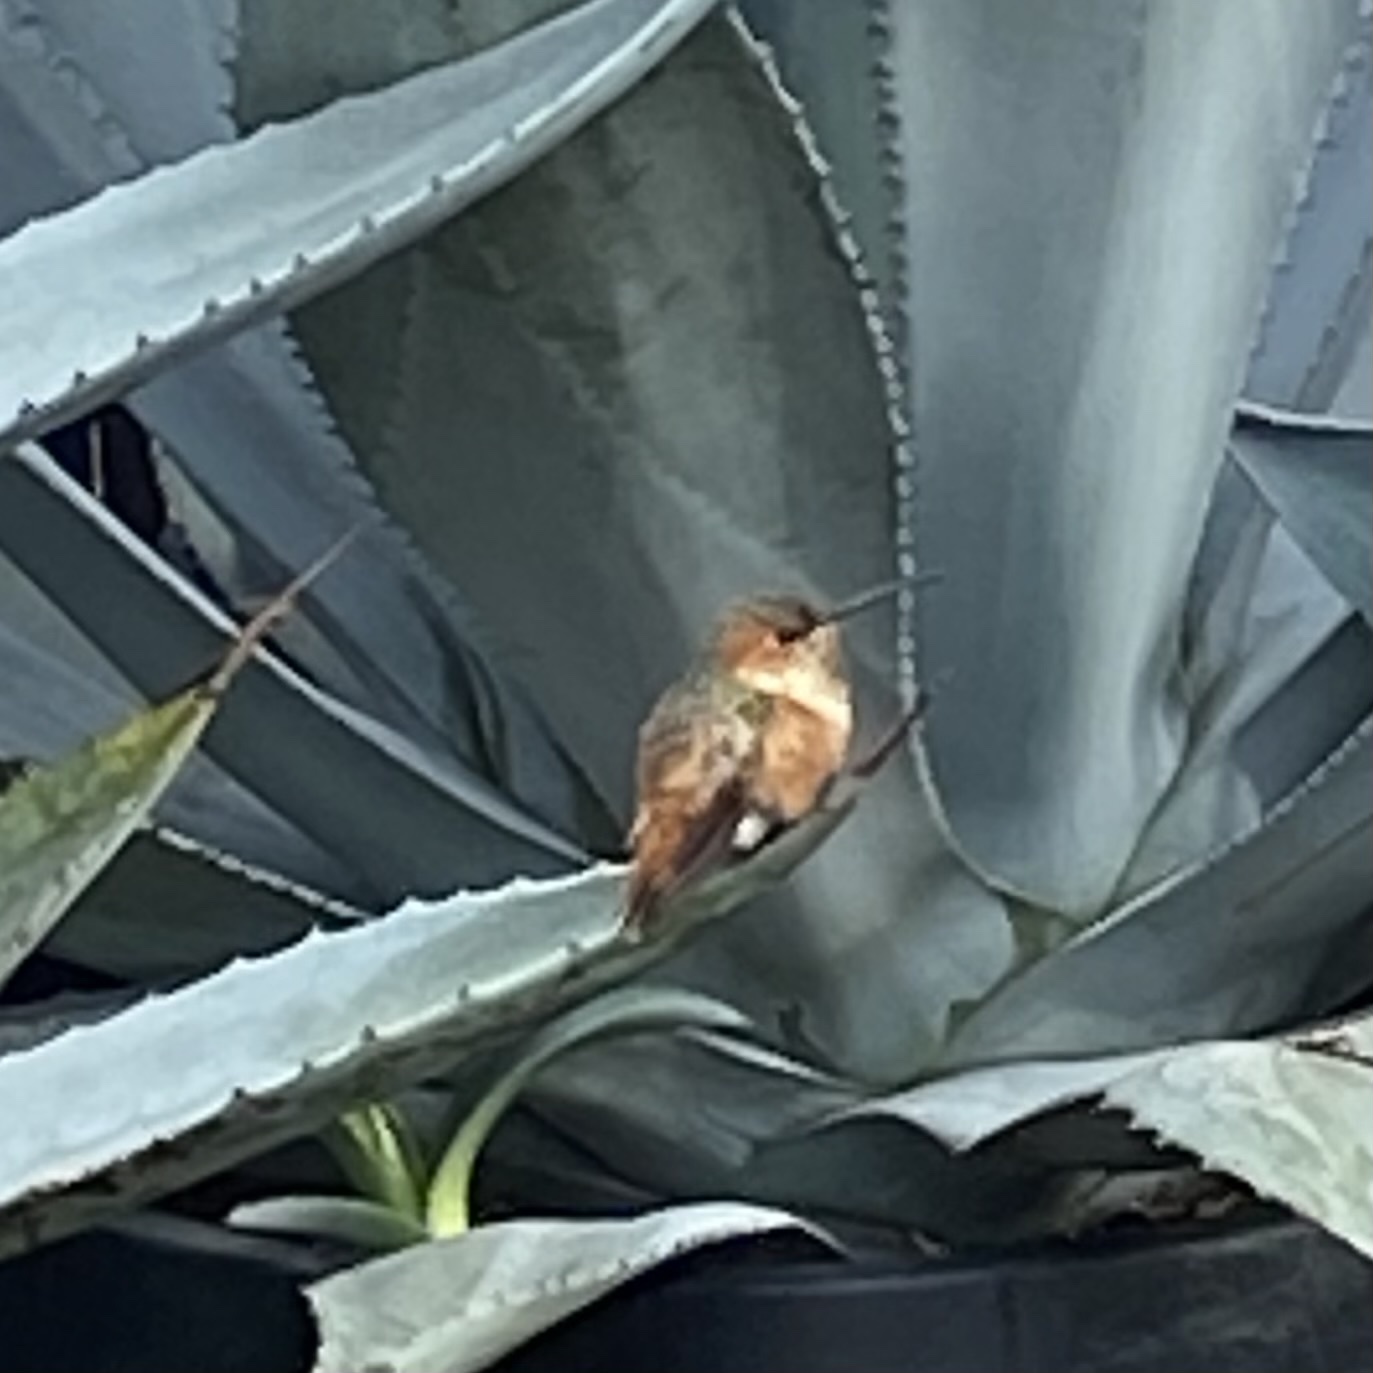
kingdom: Animalia
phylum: Chordata
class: Aves
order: Apodiformes
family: Trochilidae
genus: Selasphorus
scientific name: Selasphorus sasin
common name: Allen's hummingbird
